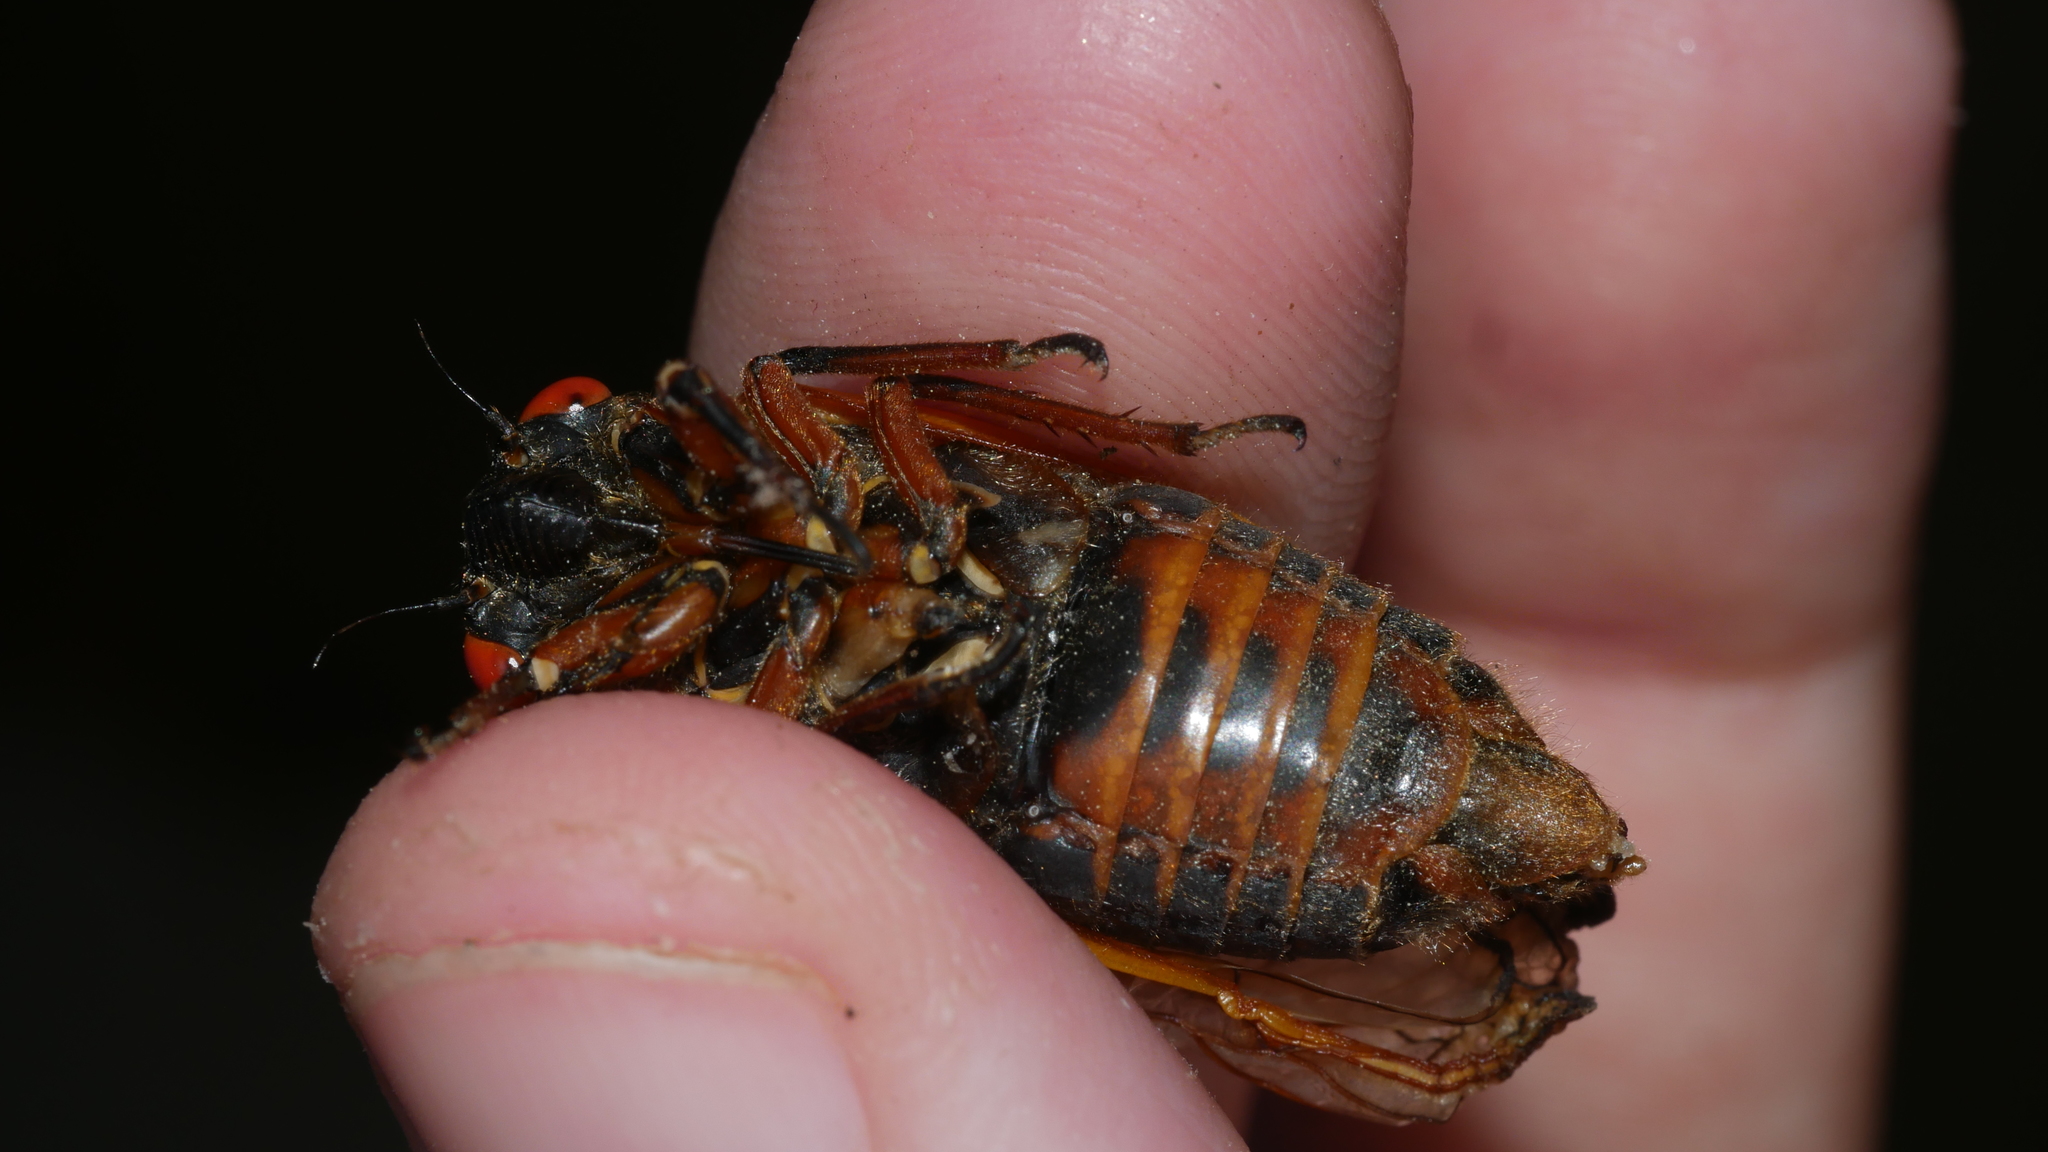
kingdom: Animalia
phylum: Arthropoda
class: Insecta
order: Hemiptera
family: Cicadidae
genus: Magicicada
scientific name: Magicicada septendecim
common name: Periodical cicada
